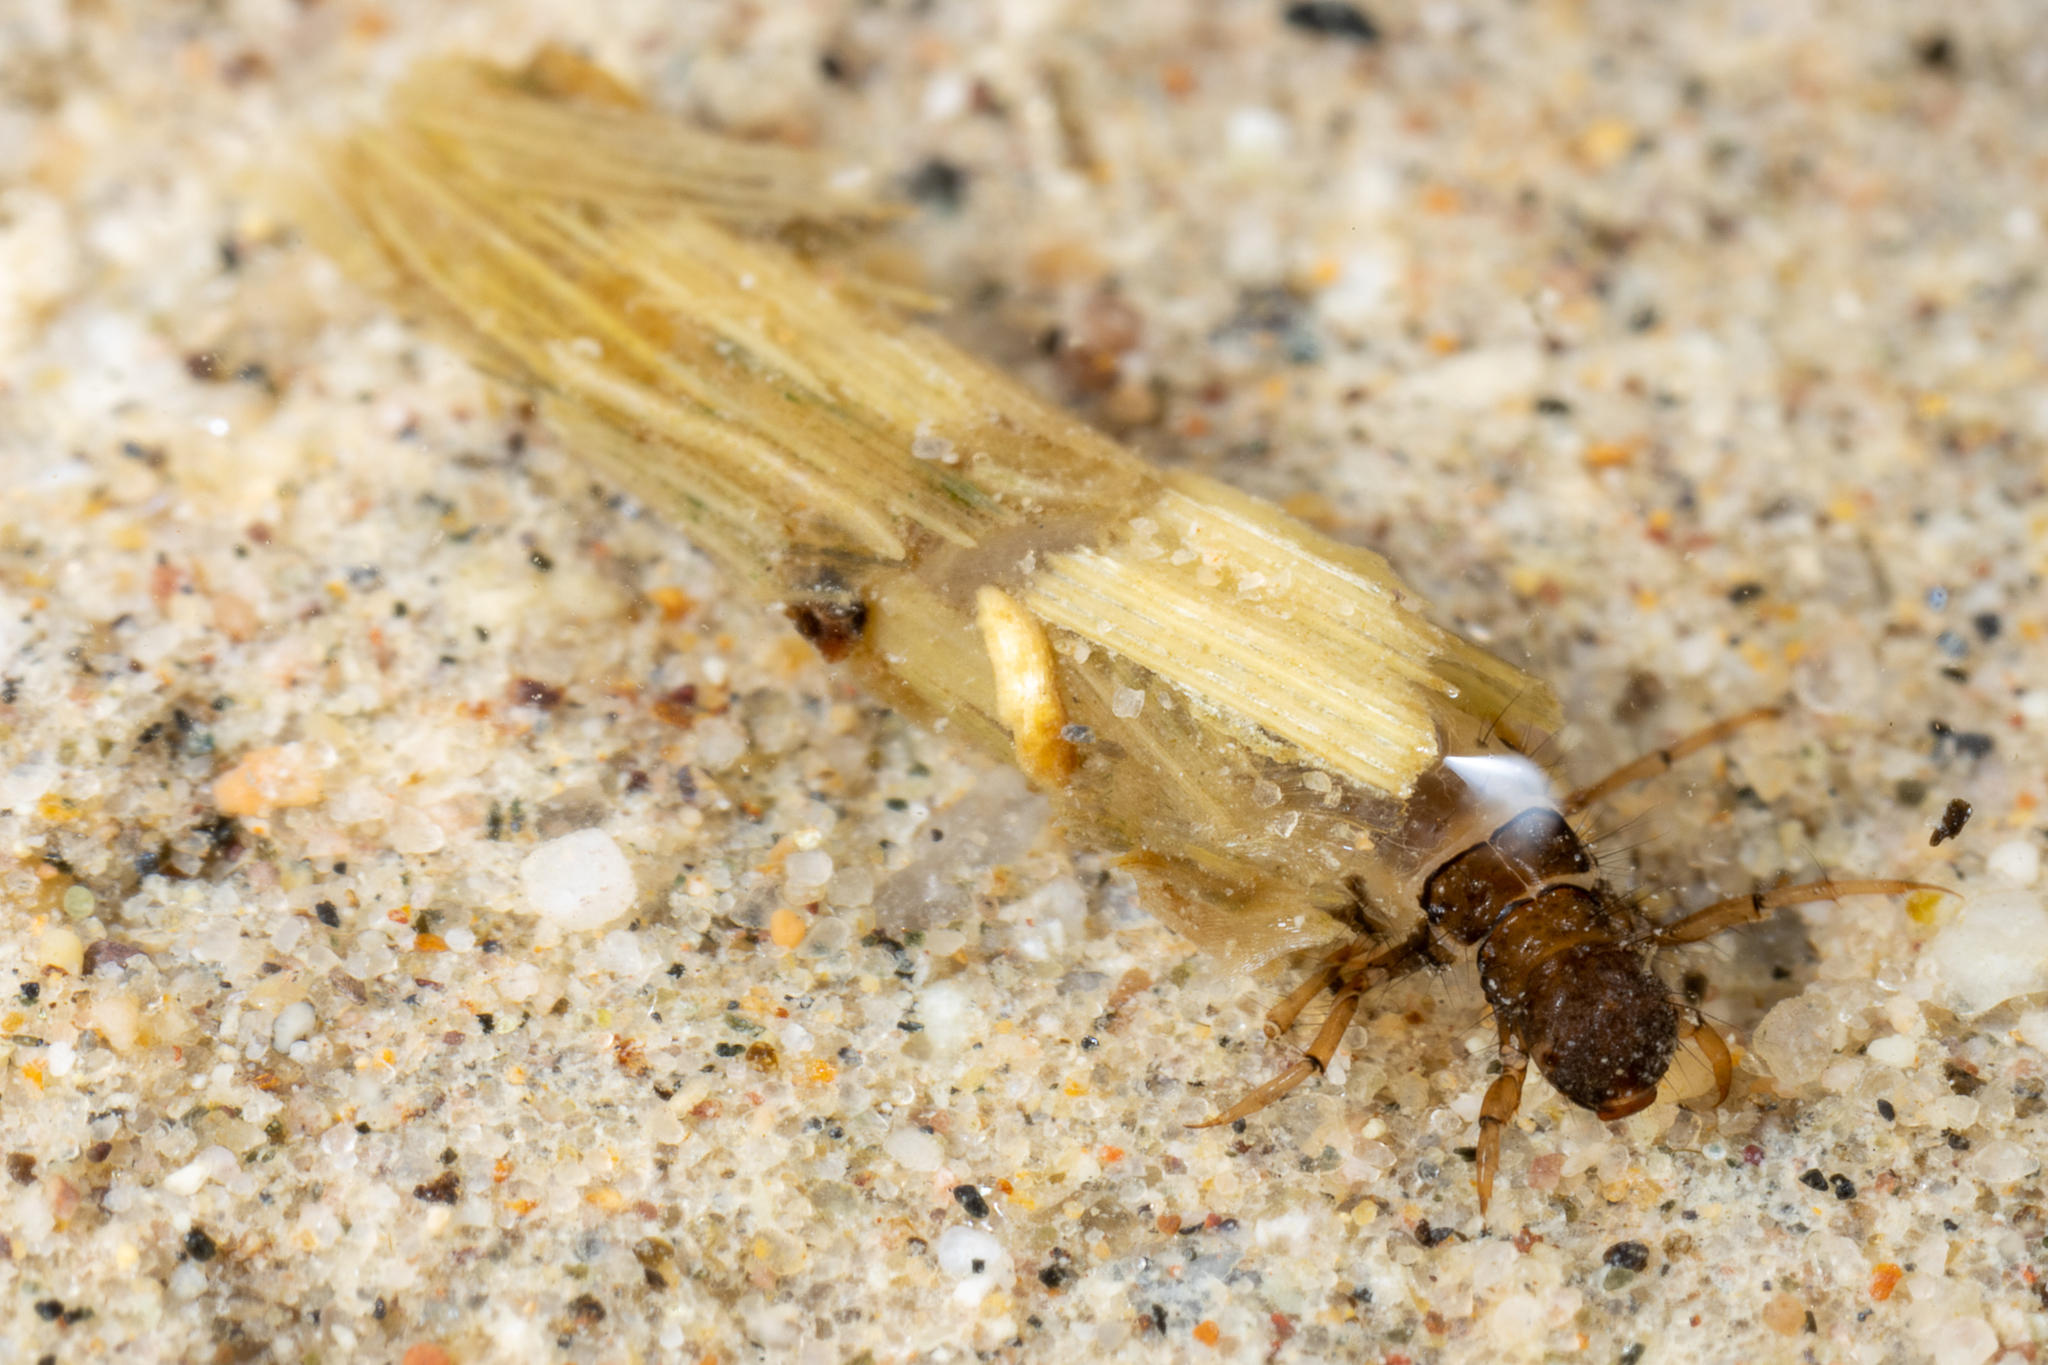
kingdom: Animalia
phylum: Arthropoda
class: Insecta
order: Trichoptera
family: Limnephilidae
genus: Limnephilus
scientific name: Limnephilus assimilis
